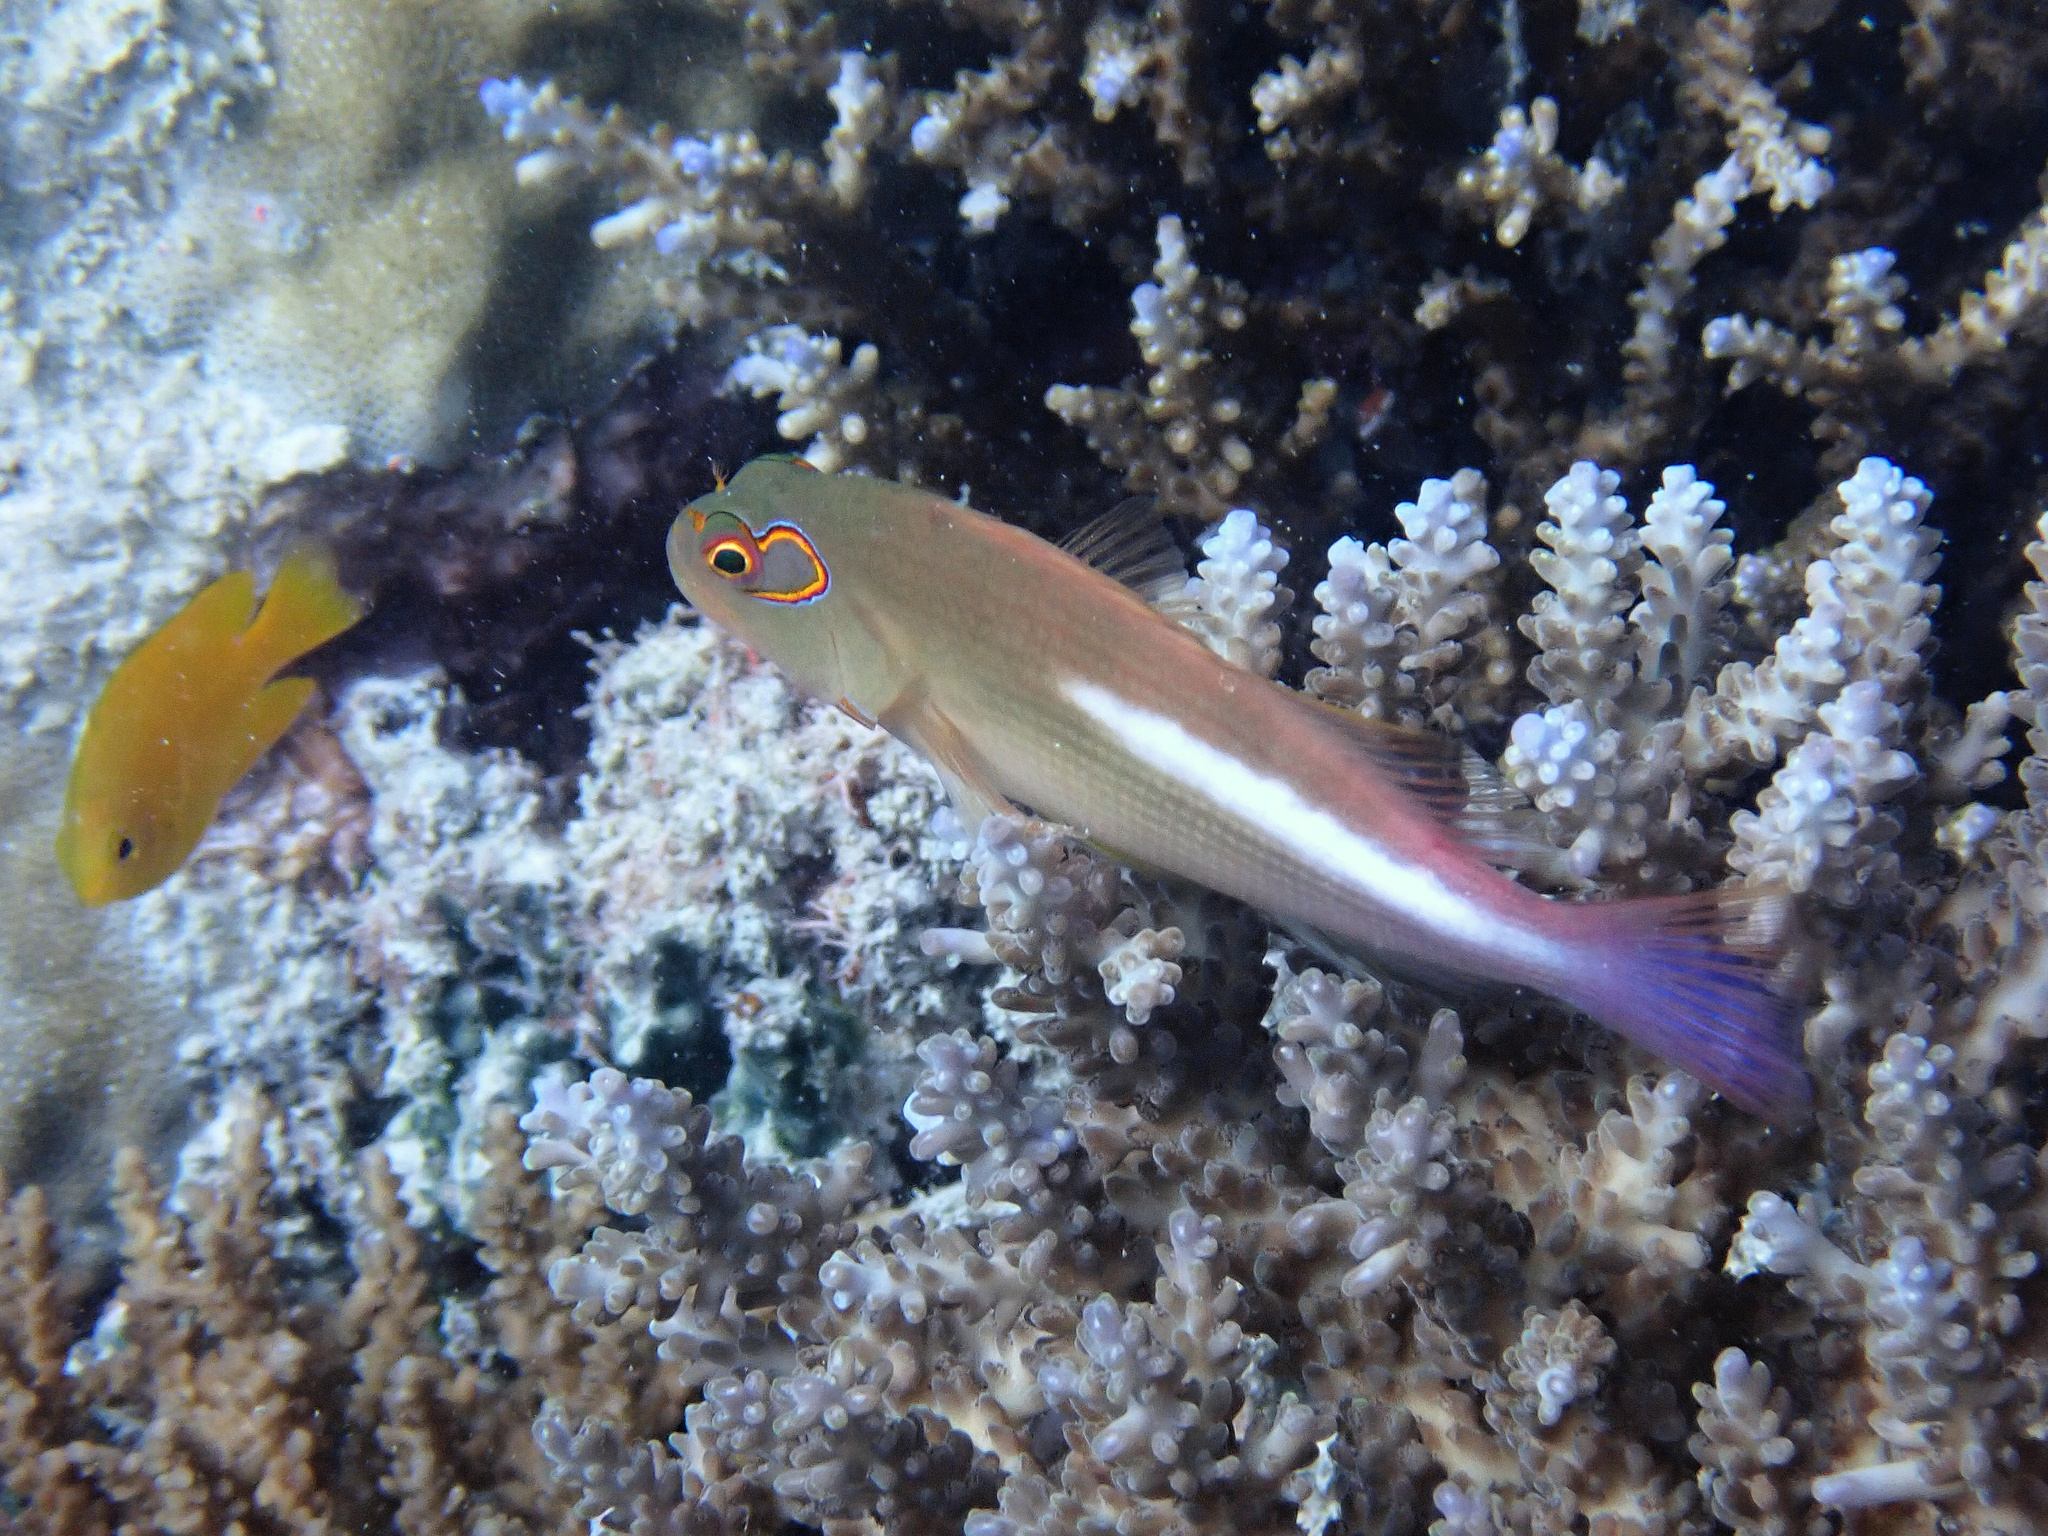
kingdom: Animalia
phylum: Chordata
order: Perciformes
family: Cirrhitidae
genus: Paracirrhites
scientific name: Paracirrhites arcatus
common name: Arc-eye hawkfish
